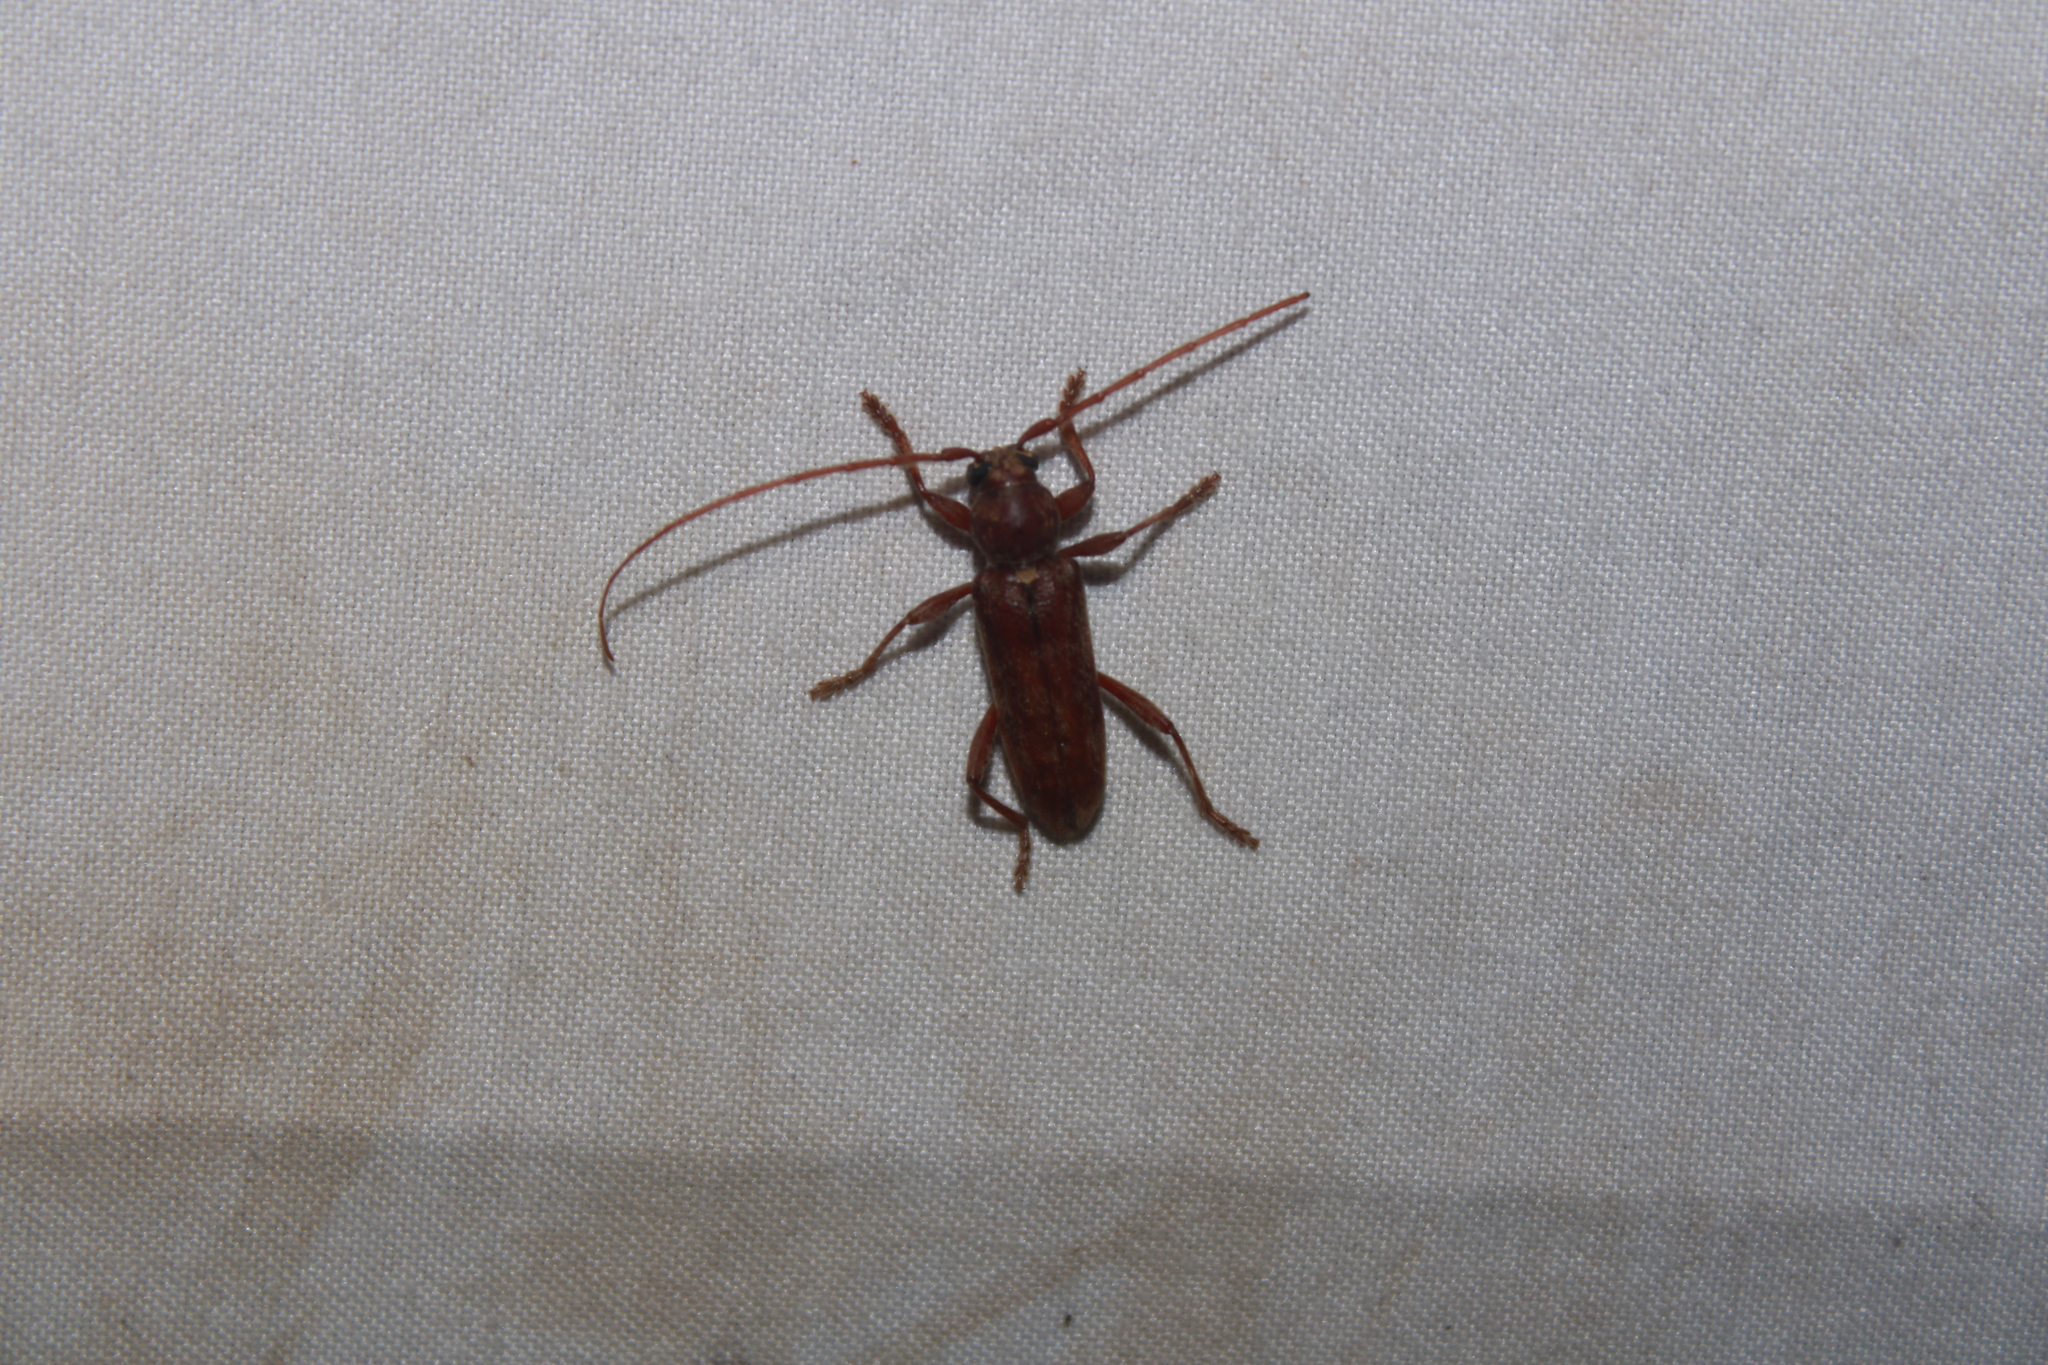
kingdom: Animalia
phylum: Arthropoda
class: Insecta
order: Coleoptera
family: Cerambycidae
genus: Hesperophanes
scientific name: Hesperophanes pubescens
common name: Longhorned wood-boring beetle
